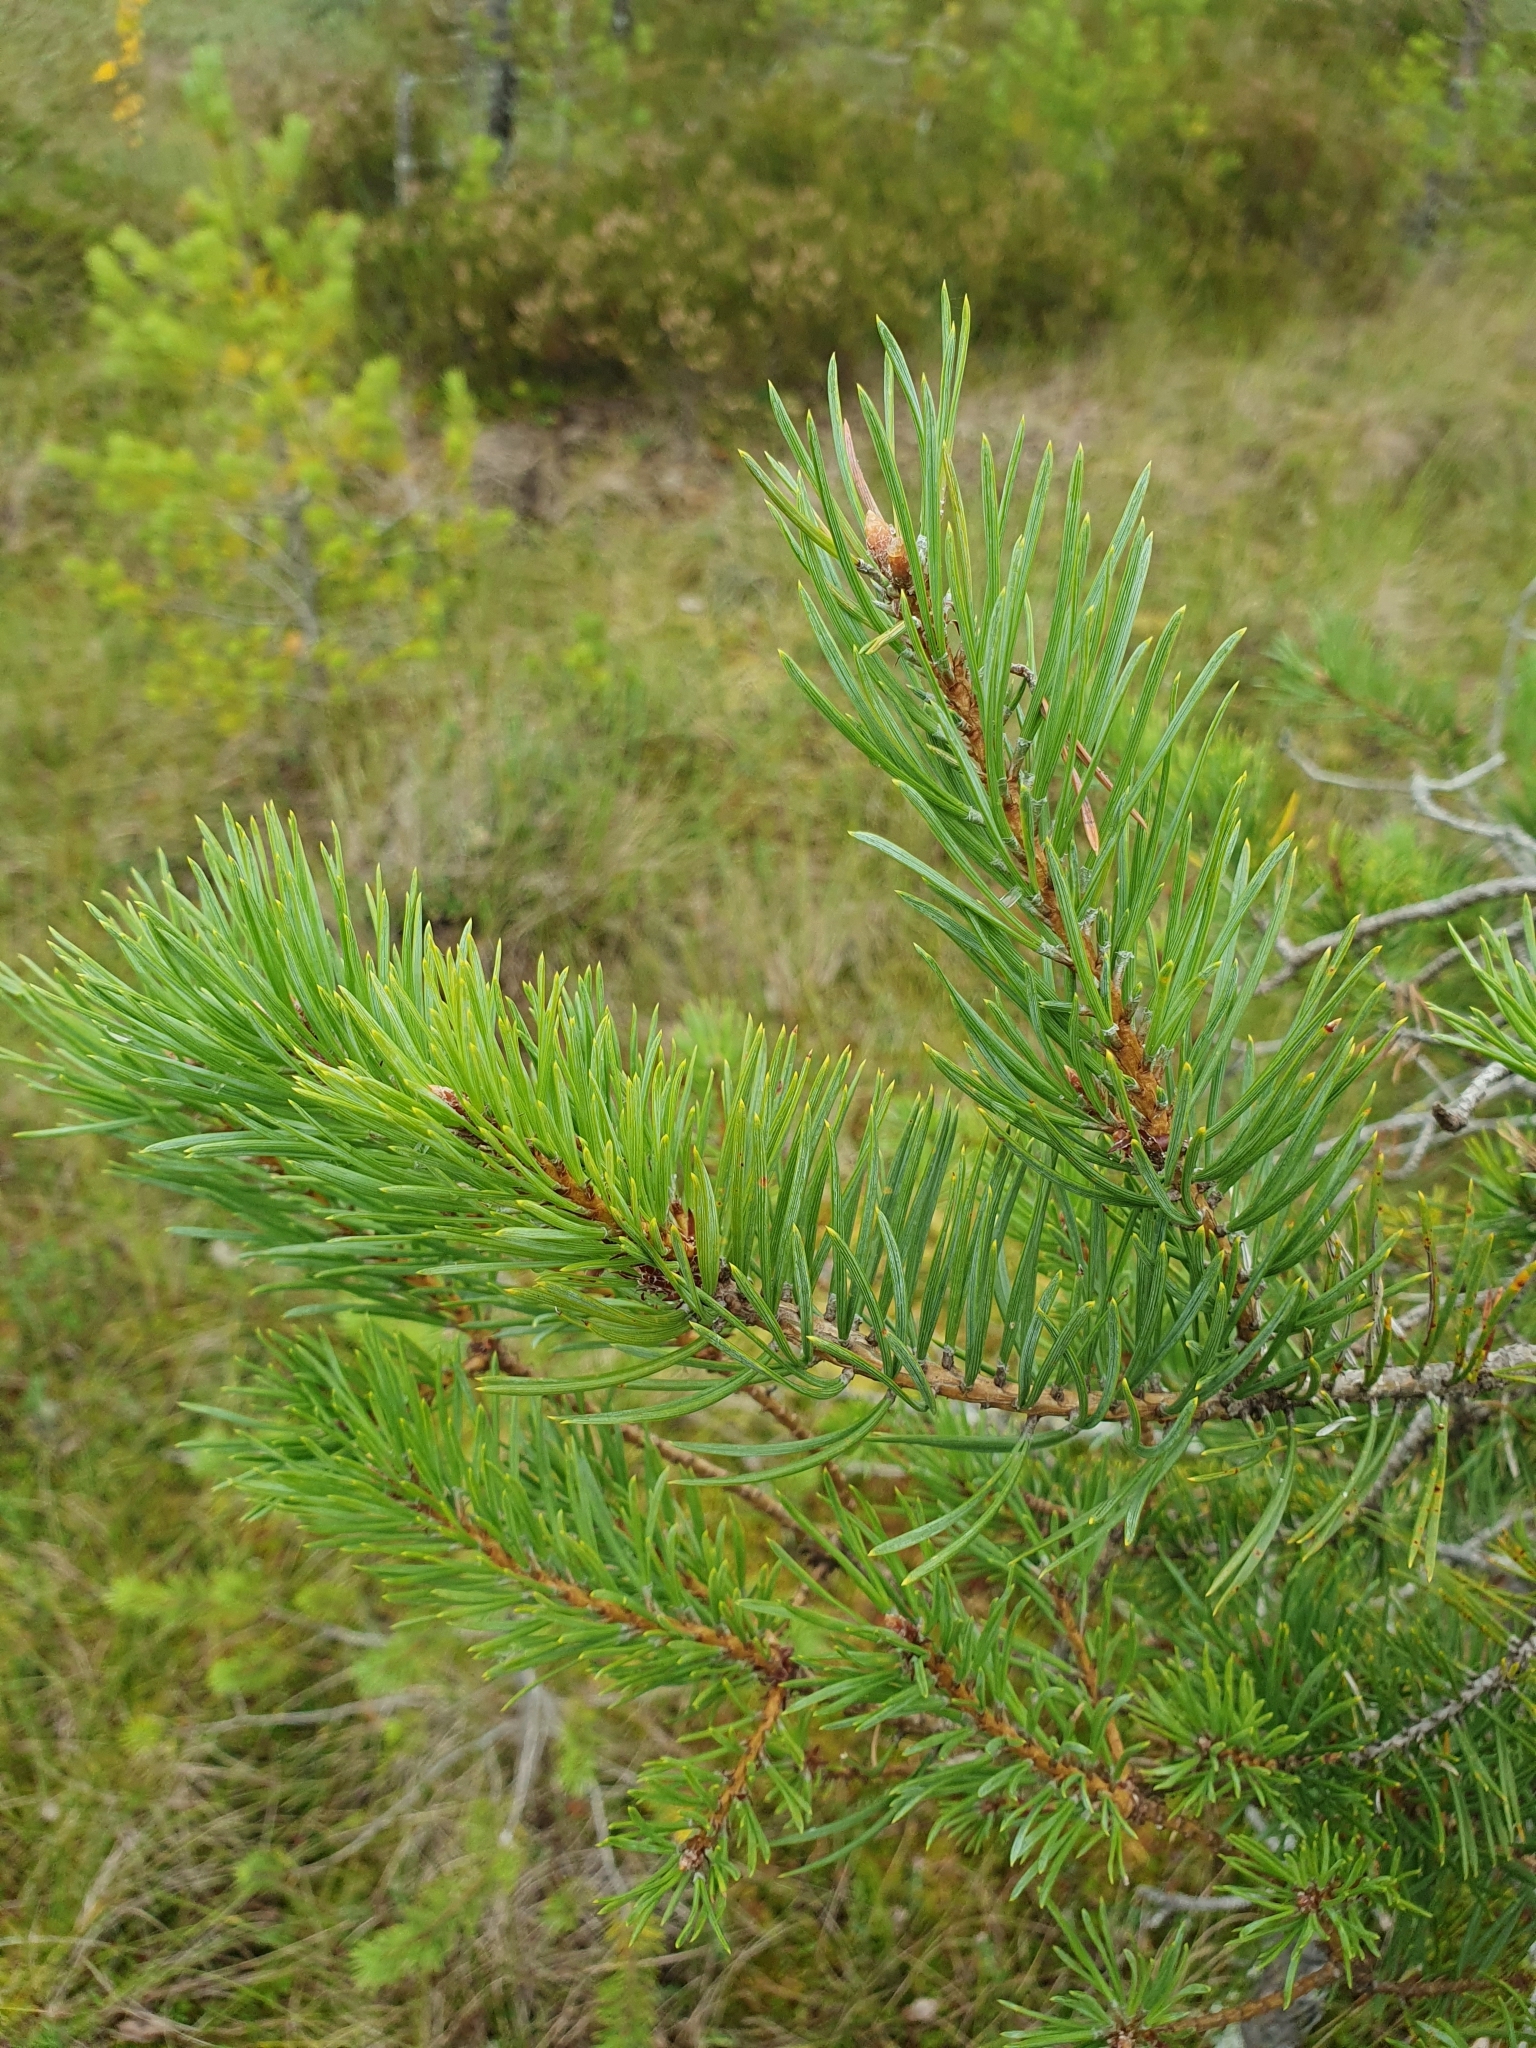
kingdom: Plantae
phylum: Tracheophyta
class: Pinopsida
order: Pinales
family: Pinaceae
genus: Pinus
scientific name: Pinus sylvestris
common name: Scots pine
